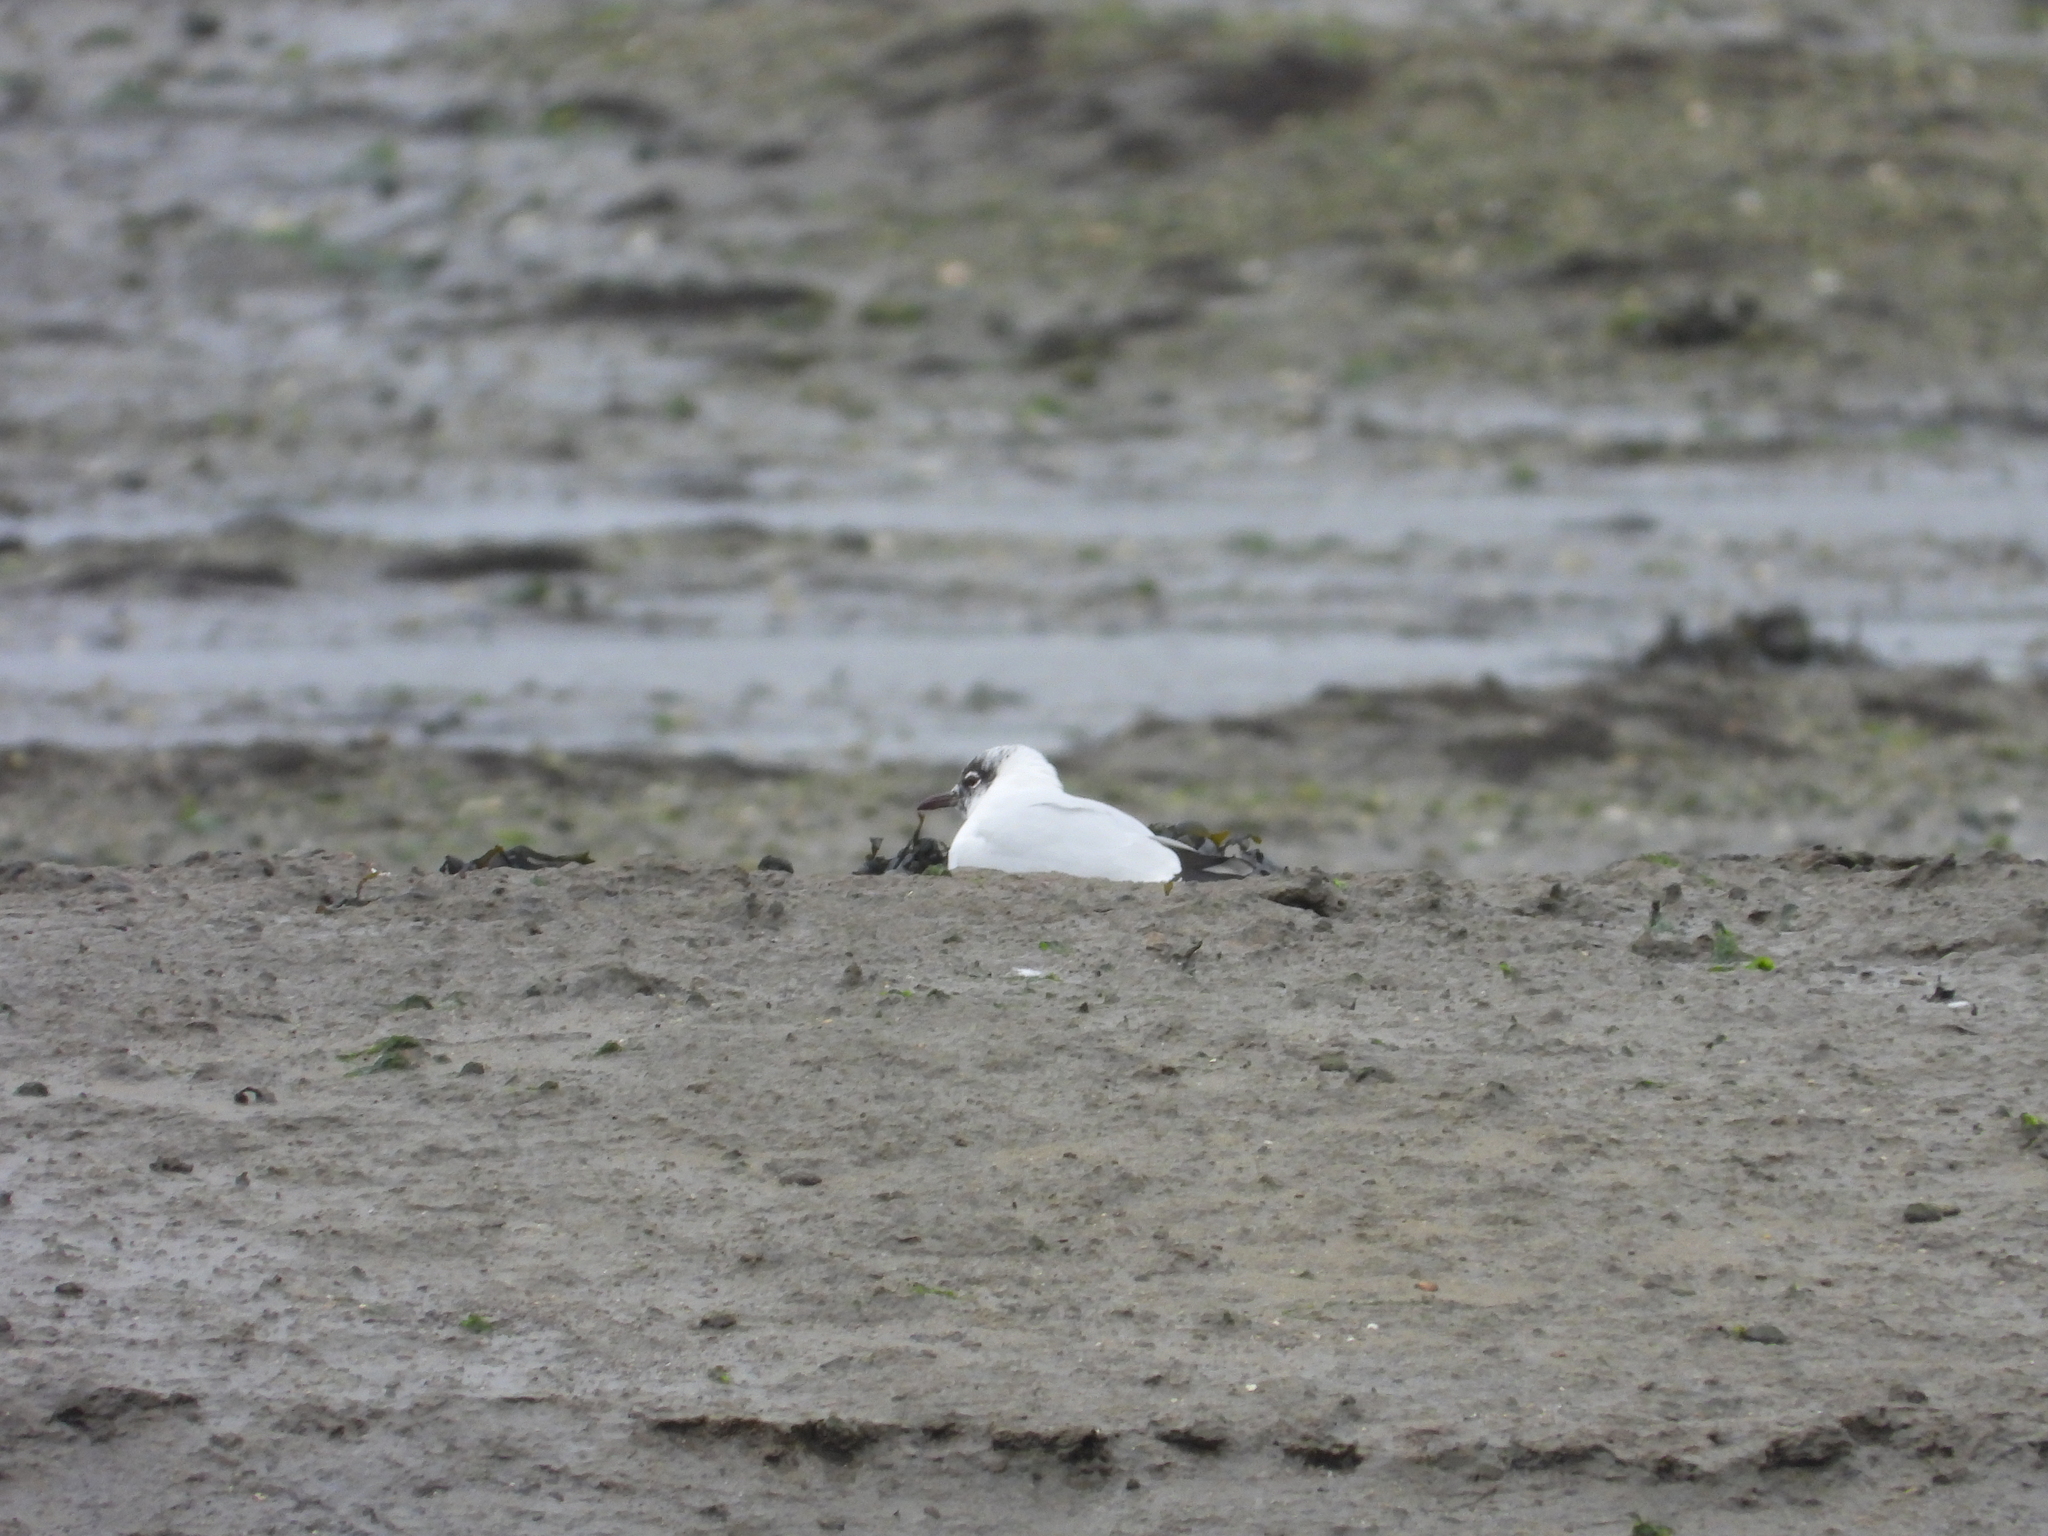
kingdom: Animalia
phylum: Chordata
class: Aves
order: Charadriiformes
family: Laridae
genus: Chroicocephalus
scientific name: Chroicocephalus ridibundus
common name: Black-headed gull
